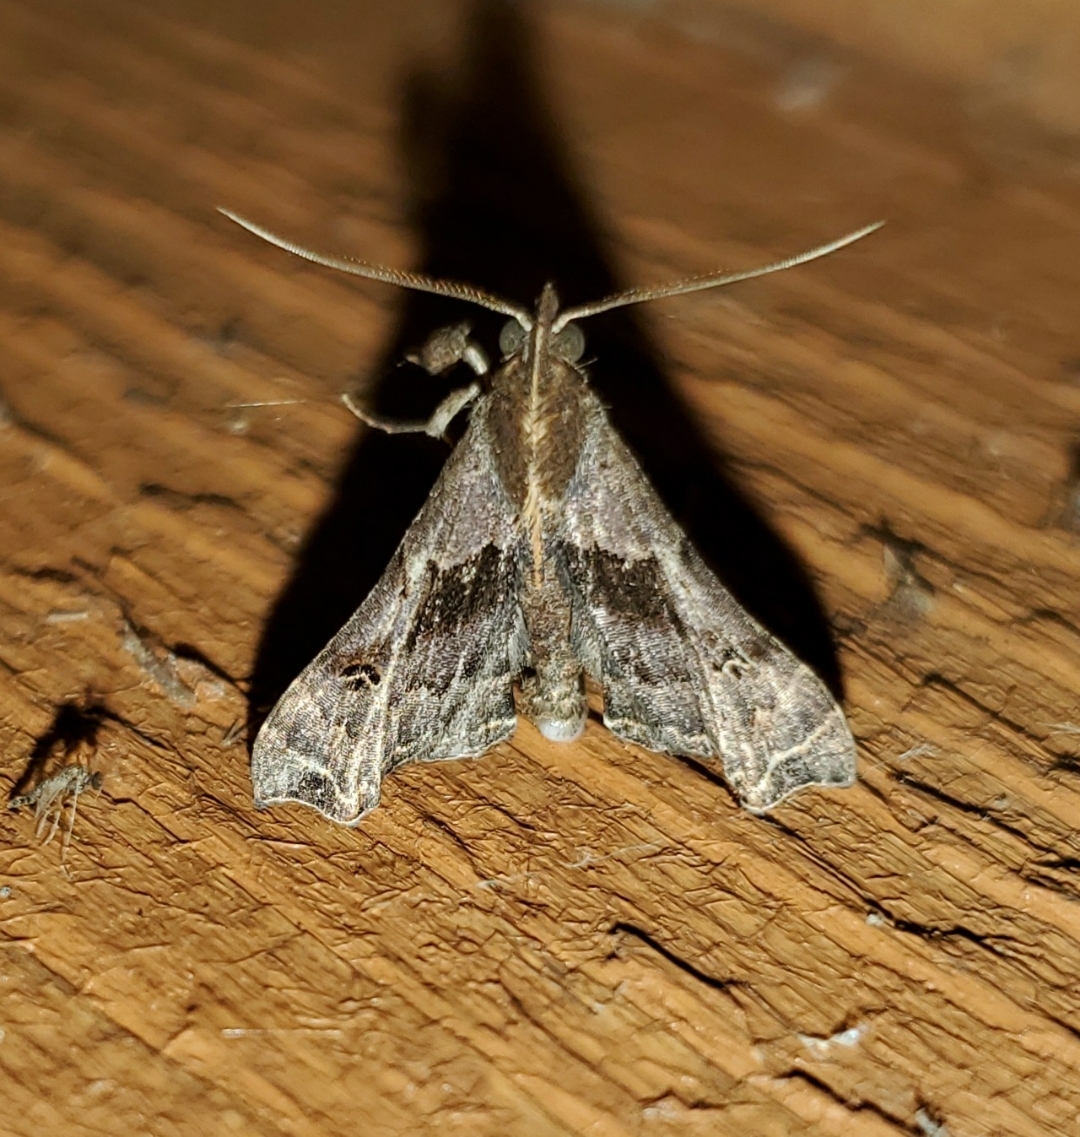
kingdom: Animalia
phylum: Arthropoda
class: Insecta
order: Lepidoptera
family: Erebidae
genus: Palthis
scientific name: Palthis asopialis
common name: Faint-spotted palthis moth
